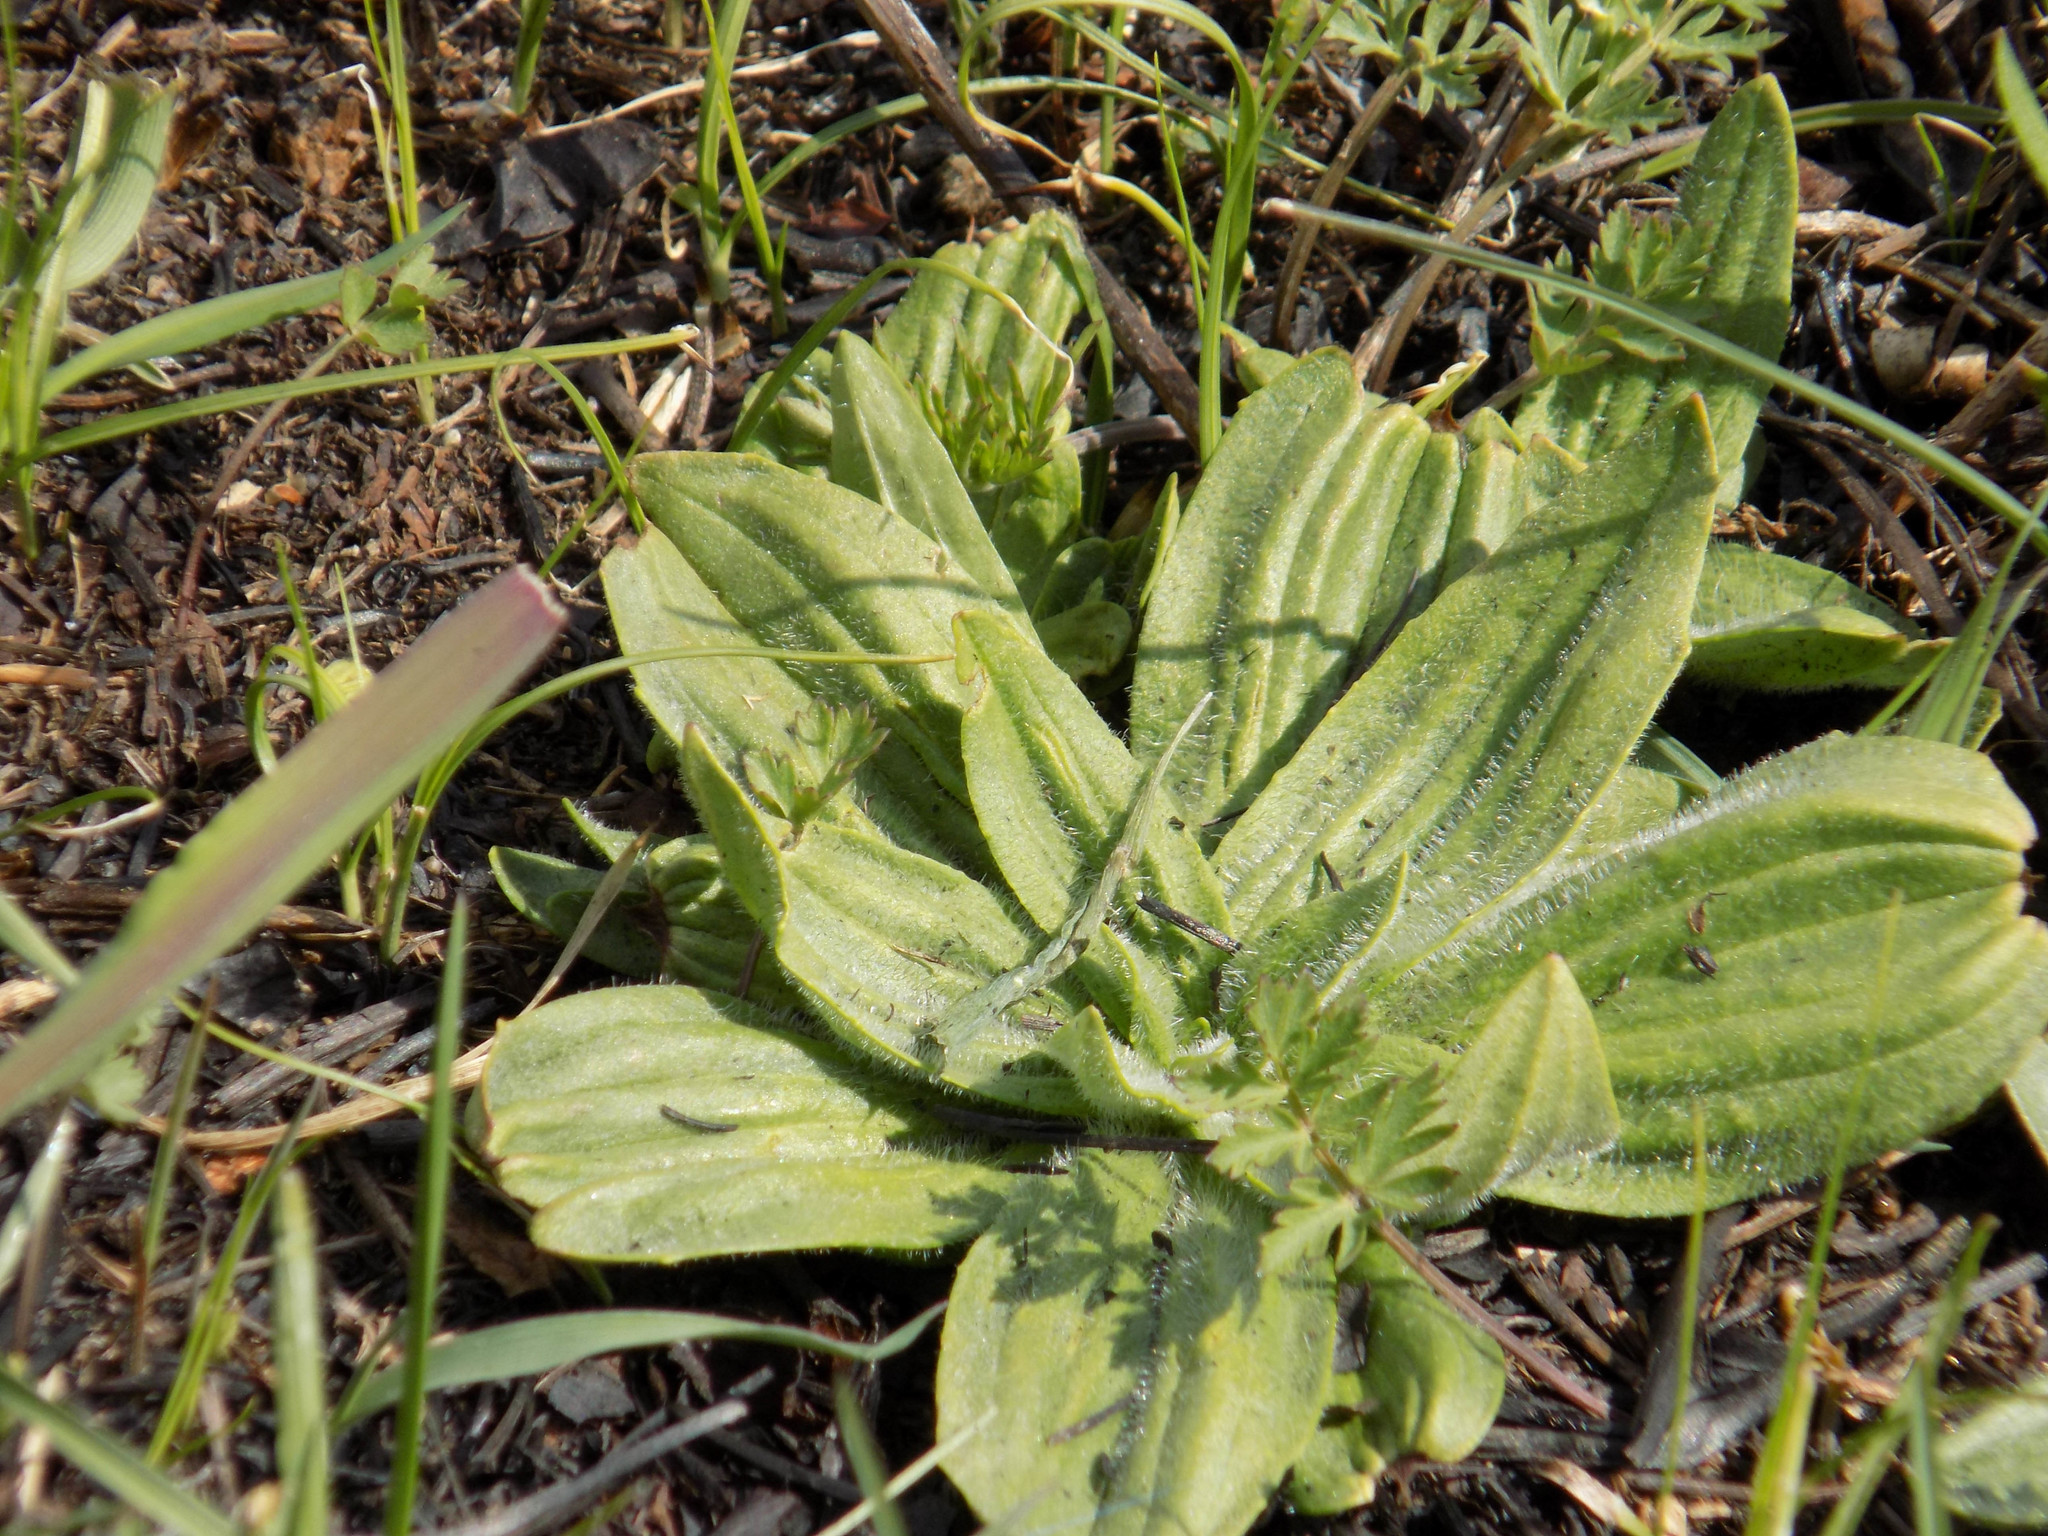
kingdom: Plantae
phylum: Tracheophyta
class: Magnoliopsida
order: Lamiales
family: Plantaginaceae
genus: Plantago
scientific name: Plantago media
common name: Hoary plantain
